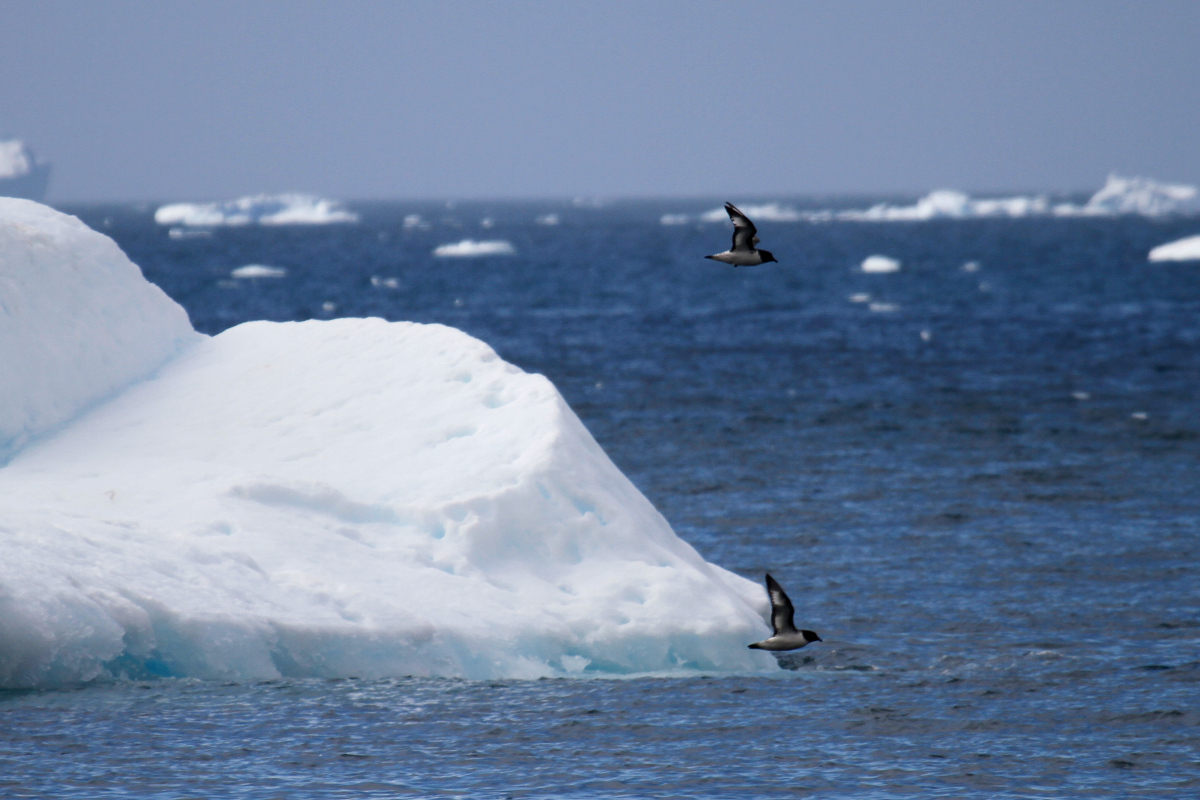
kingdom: Animalia
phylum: Chordata
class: Aves
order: Procellariiformes
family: Procellariidae
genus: Daption
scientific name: Daption capense
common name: Cape petrel
